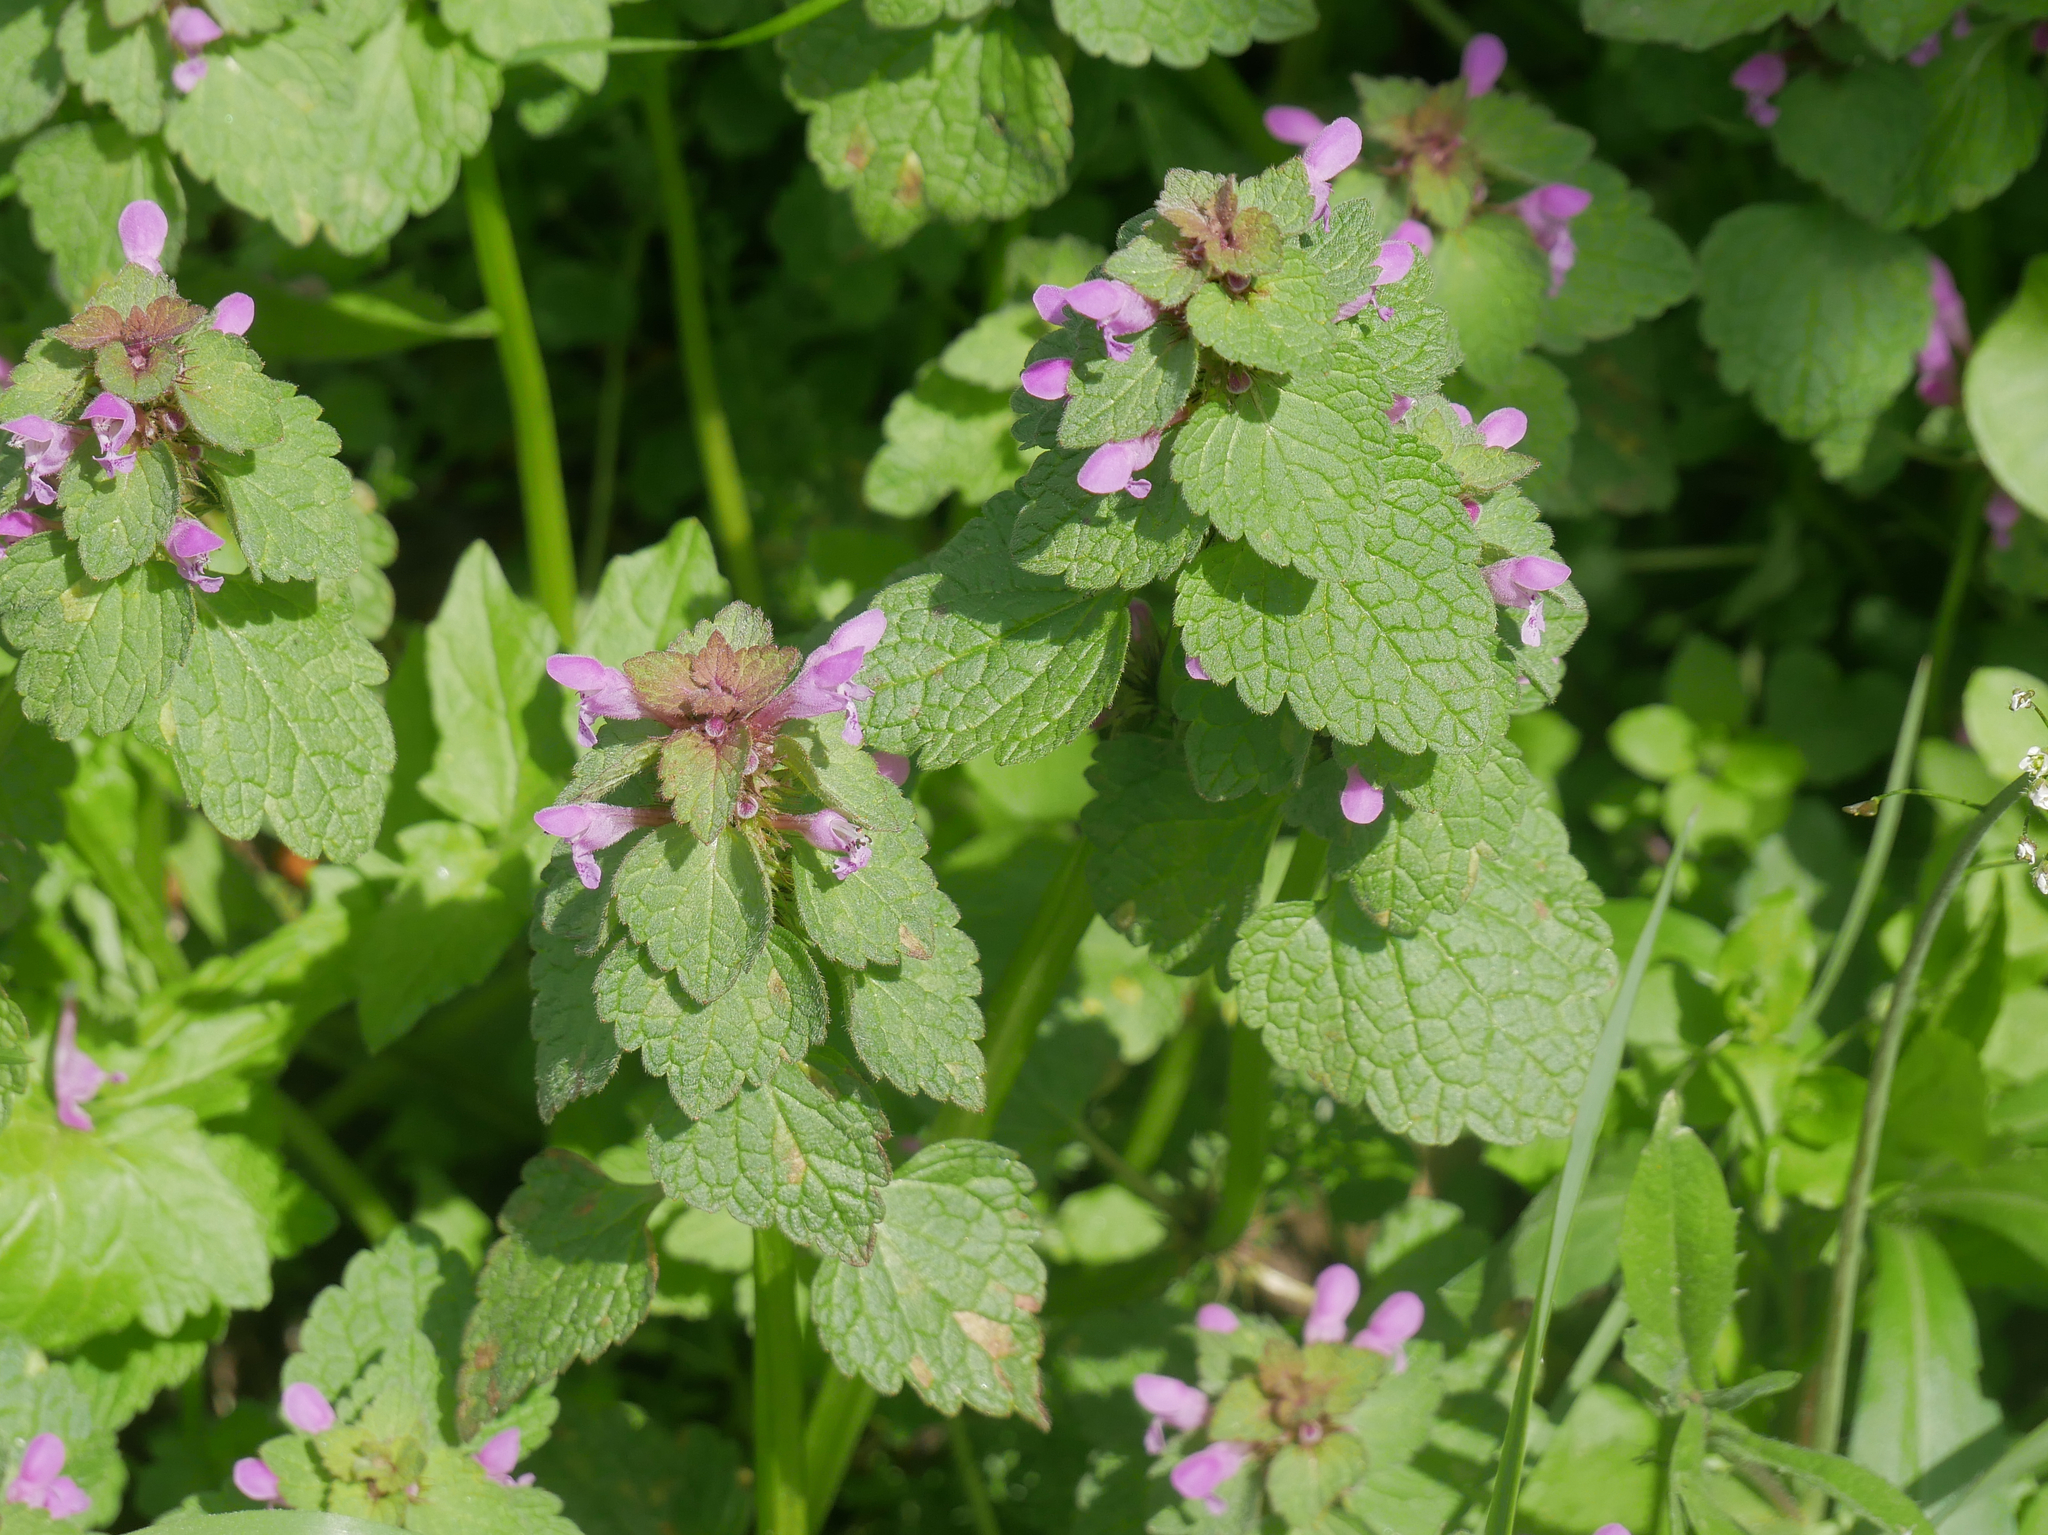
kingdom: Plantae
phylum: Tracheophyta
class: Magnoliopsida
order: Lamiales
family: Lamiaceae
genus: Lamium
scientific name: Lamium purpureum
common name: Red dead-nettle
